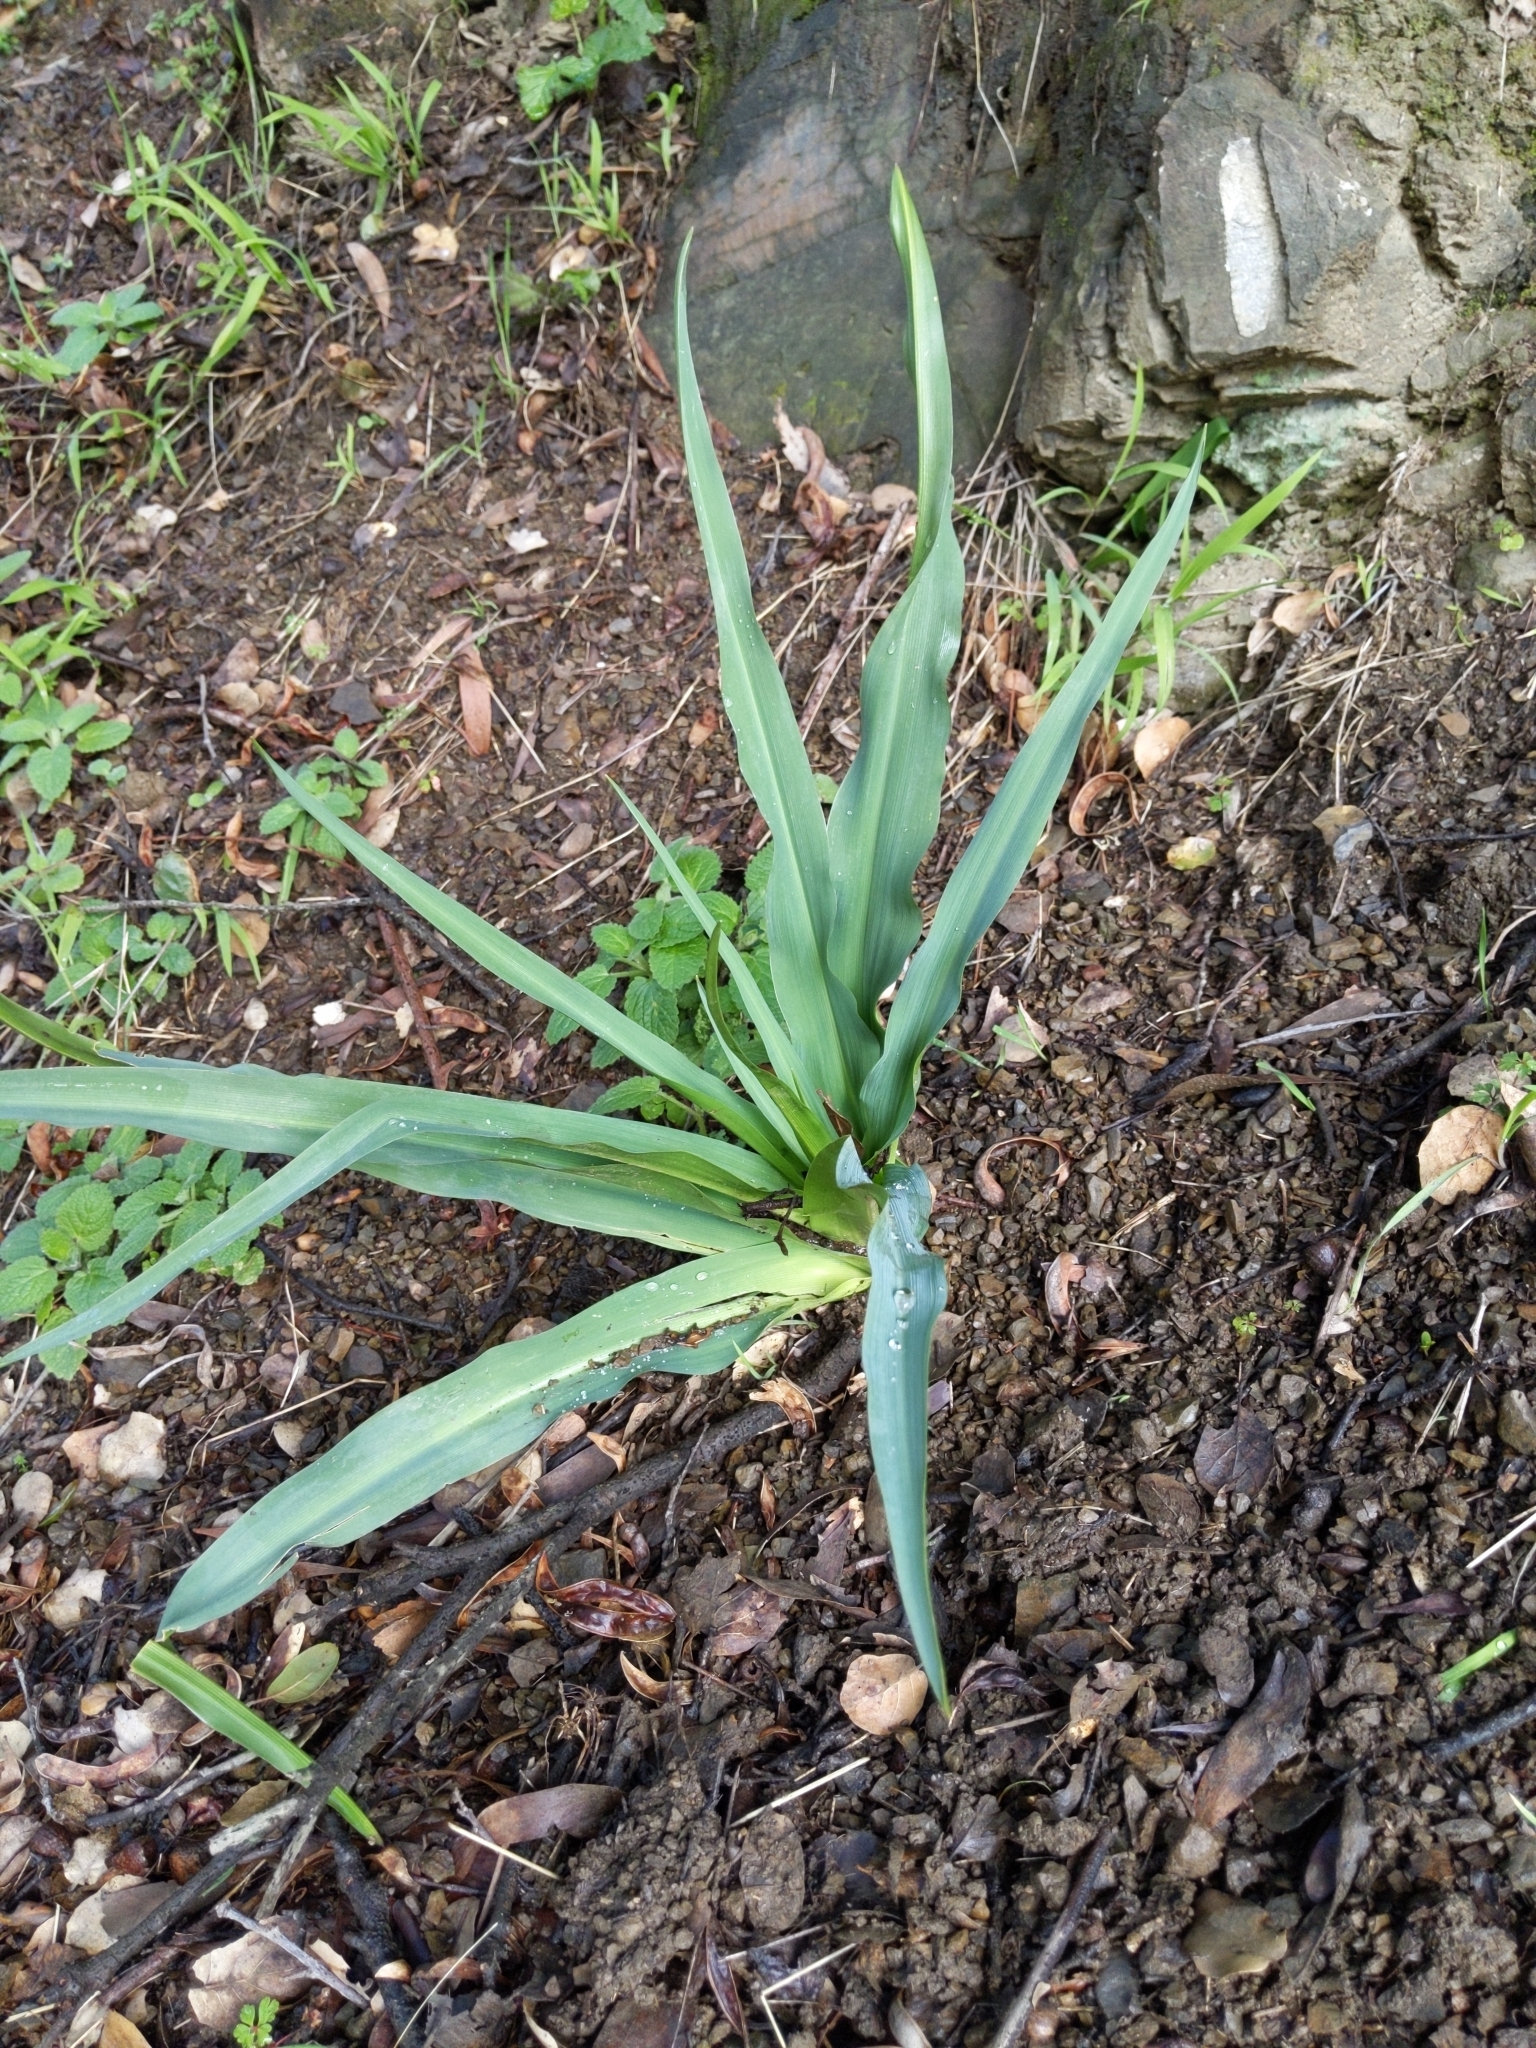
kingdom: Plantae
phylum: Tracheophyta
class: Liliopsida
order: Asparagales
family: Asparagaceae
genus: Chlorogalum
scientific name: Chlorogalum pomeridianum
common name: Amole
